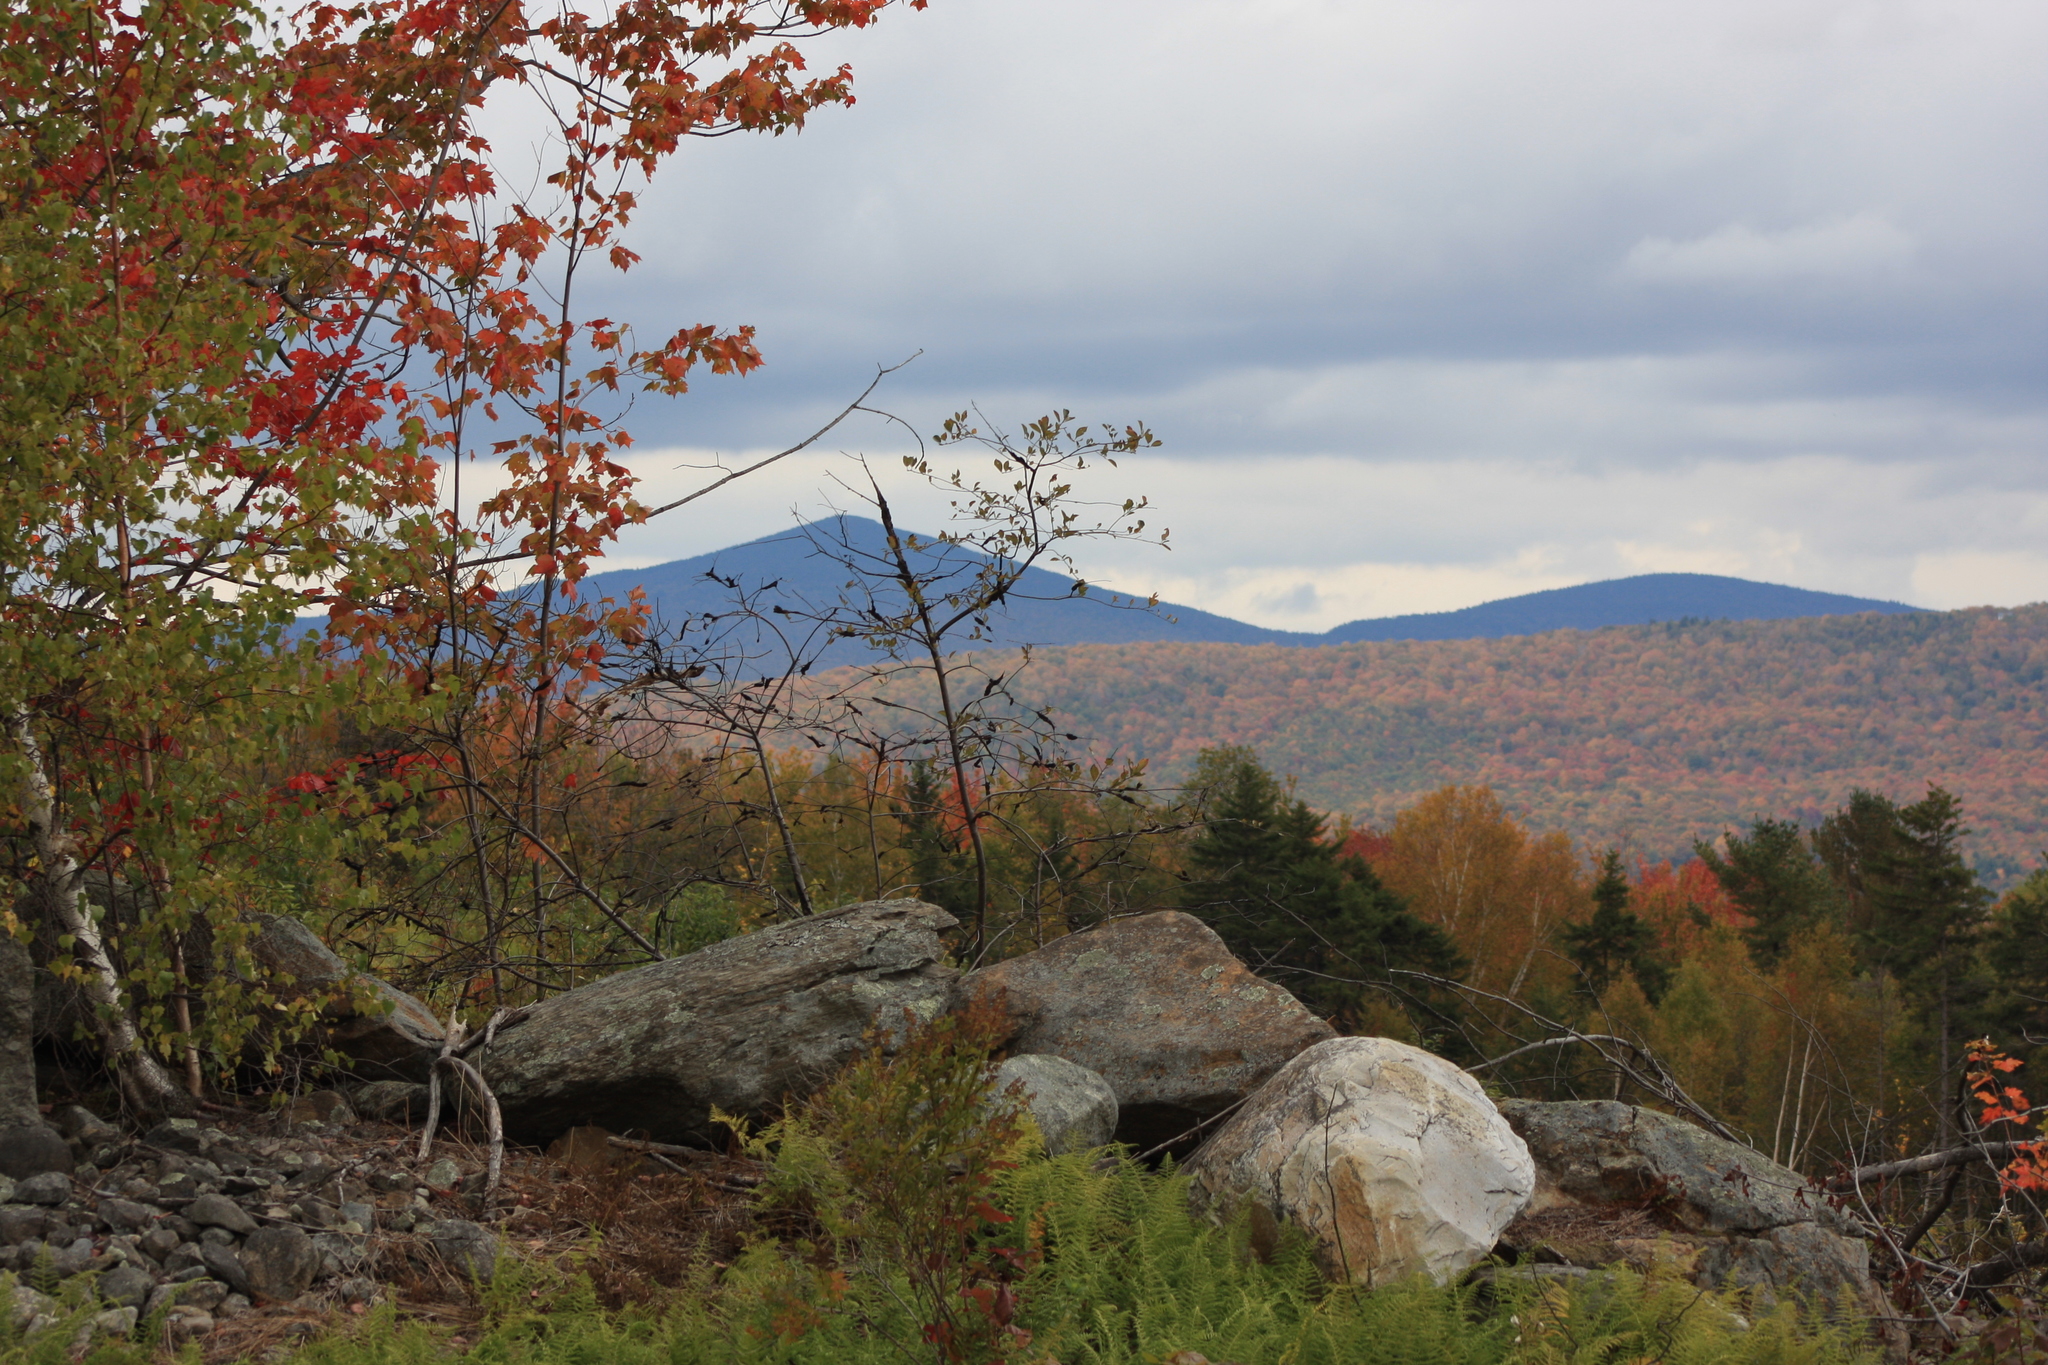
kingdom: Plantae
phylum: Tracheophyta
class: Magnoliopsida
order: Sapindales
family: Sapindaceae
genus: Acer
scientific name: Acer rubrum
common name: Red maple
